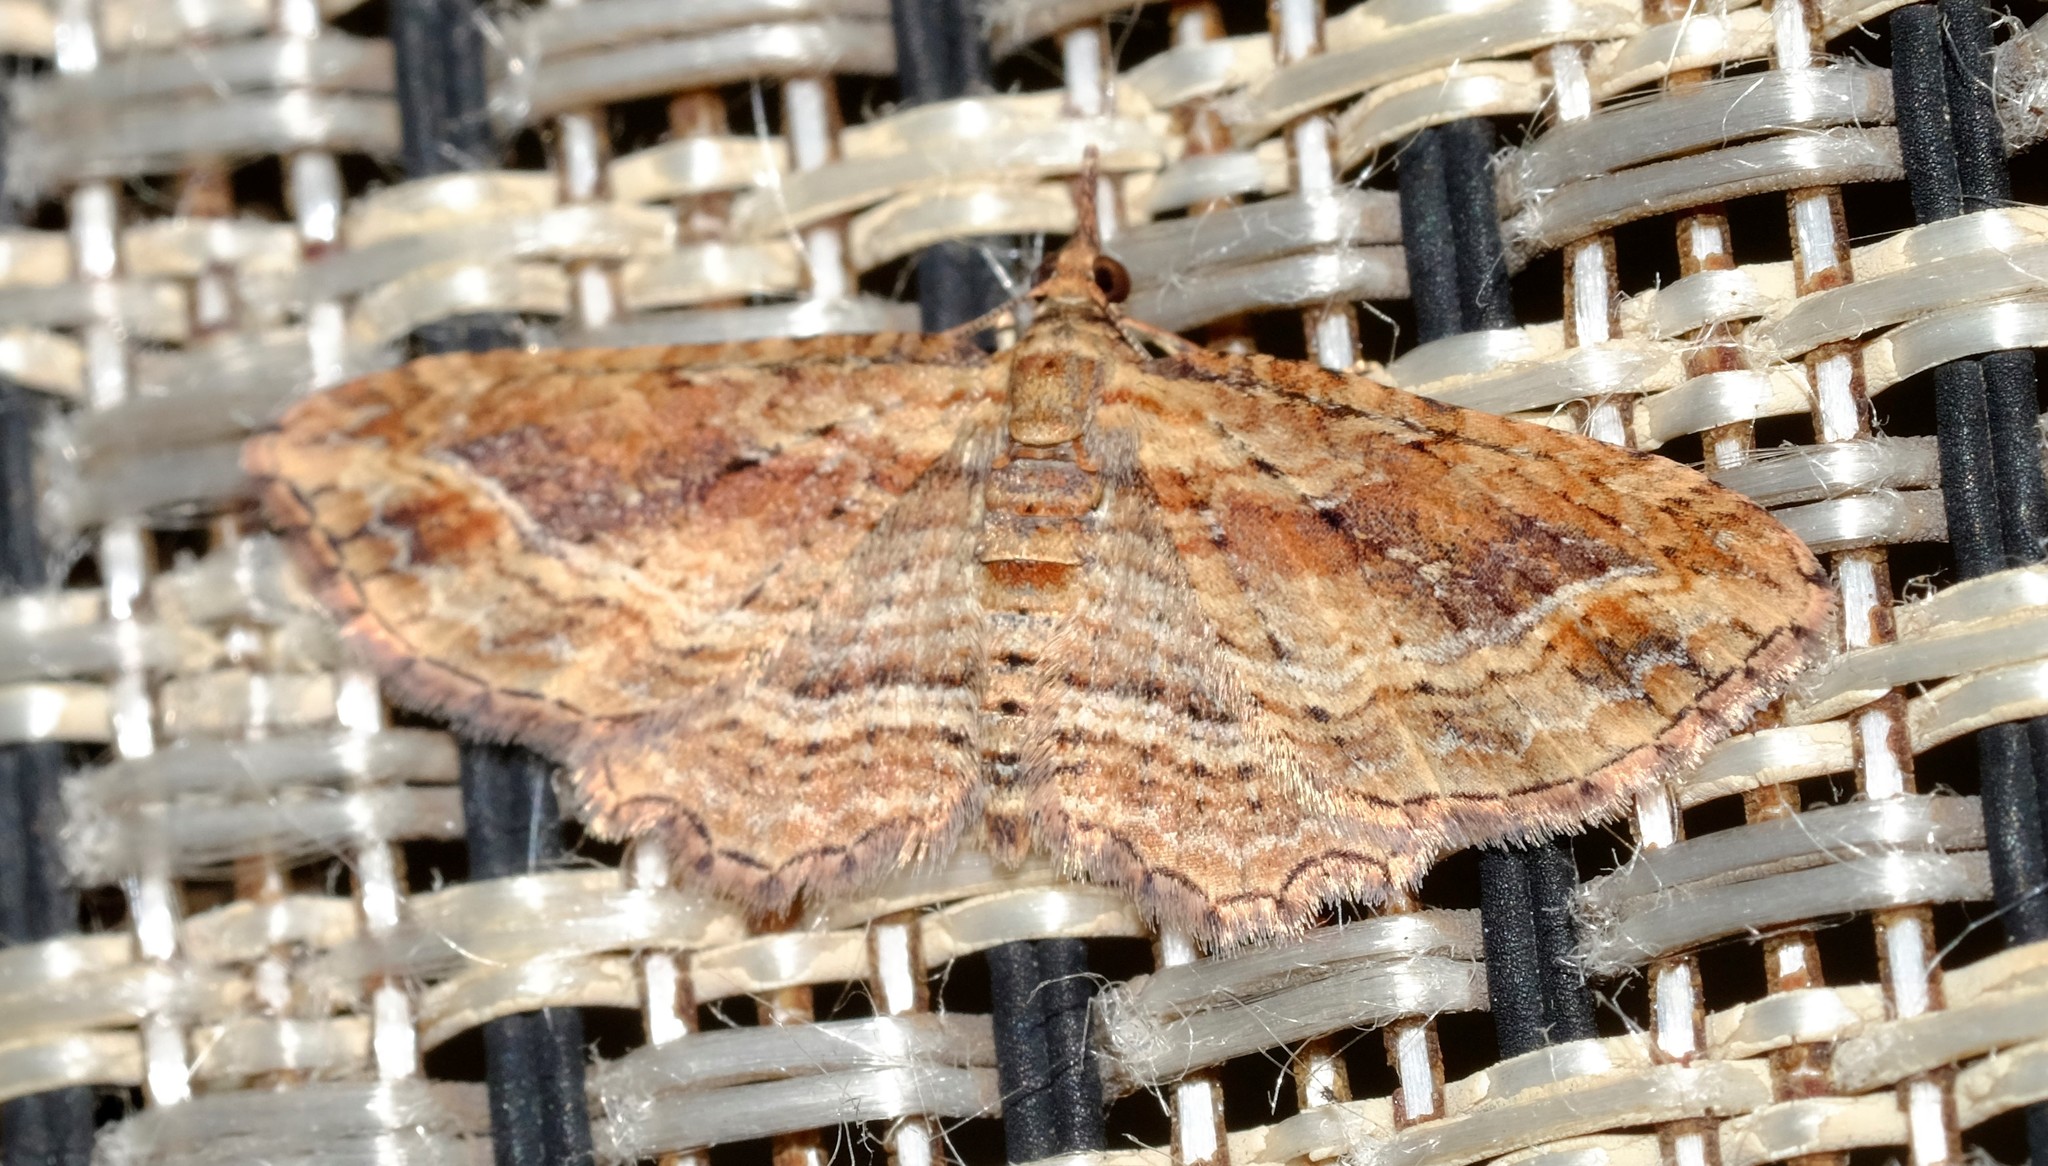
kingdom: Animalia
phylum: Arthropoda
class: Insecta
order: Lepidoptera
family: Geometridae
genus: Chloroclystis
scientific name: Chloroclystis filata
